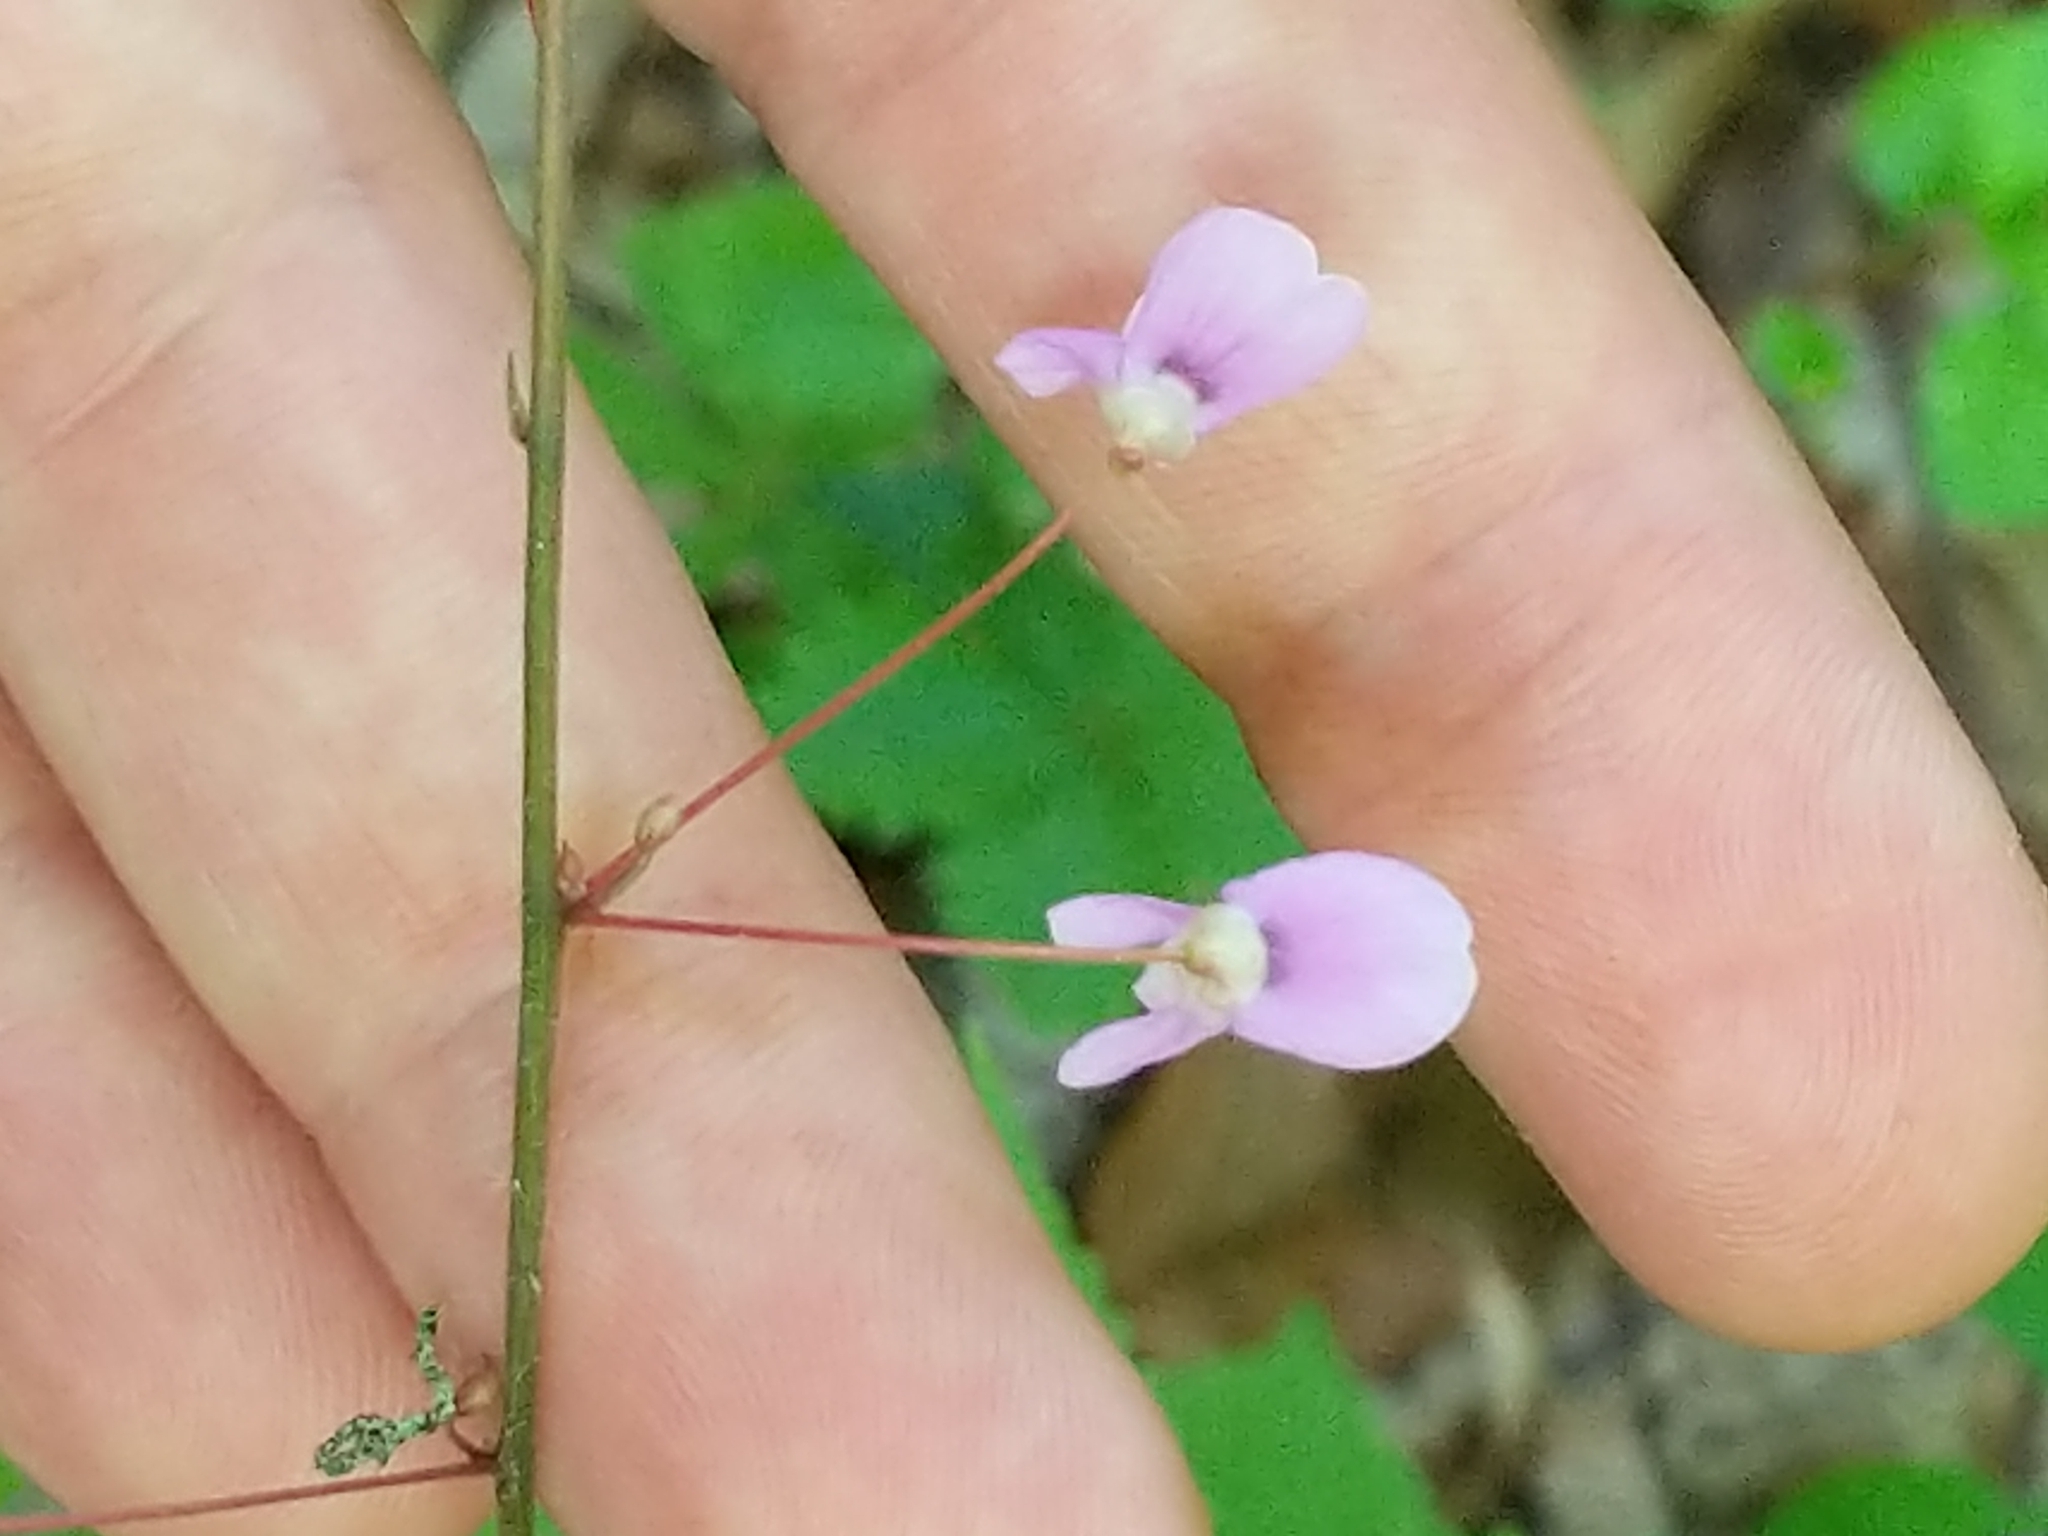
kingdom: Plantae
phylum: Tracheophyta
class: Magnoliopsida
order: Fabales
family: Fabaceae
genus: Hylodesmum
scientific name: Hylodesmum nudiflorum
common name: Bare-stemmed tick-trefoil
